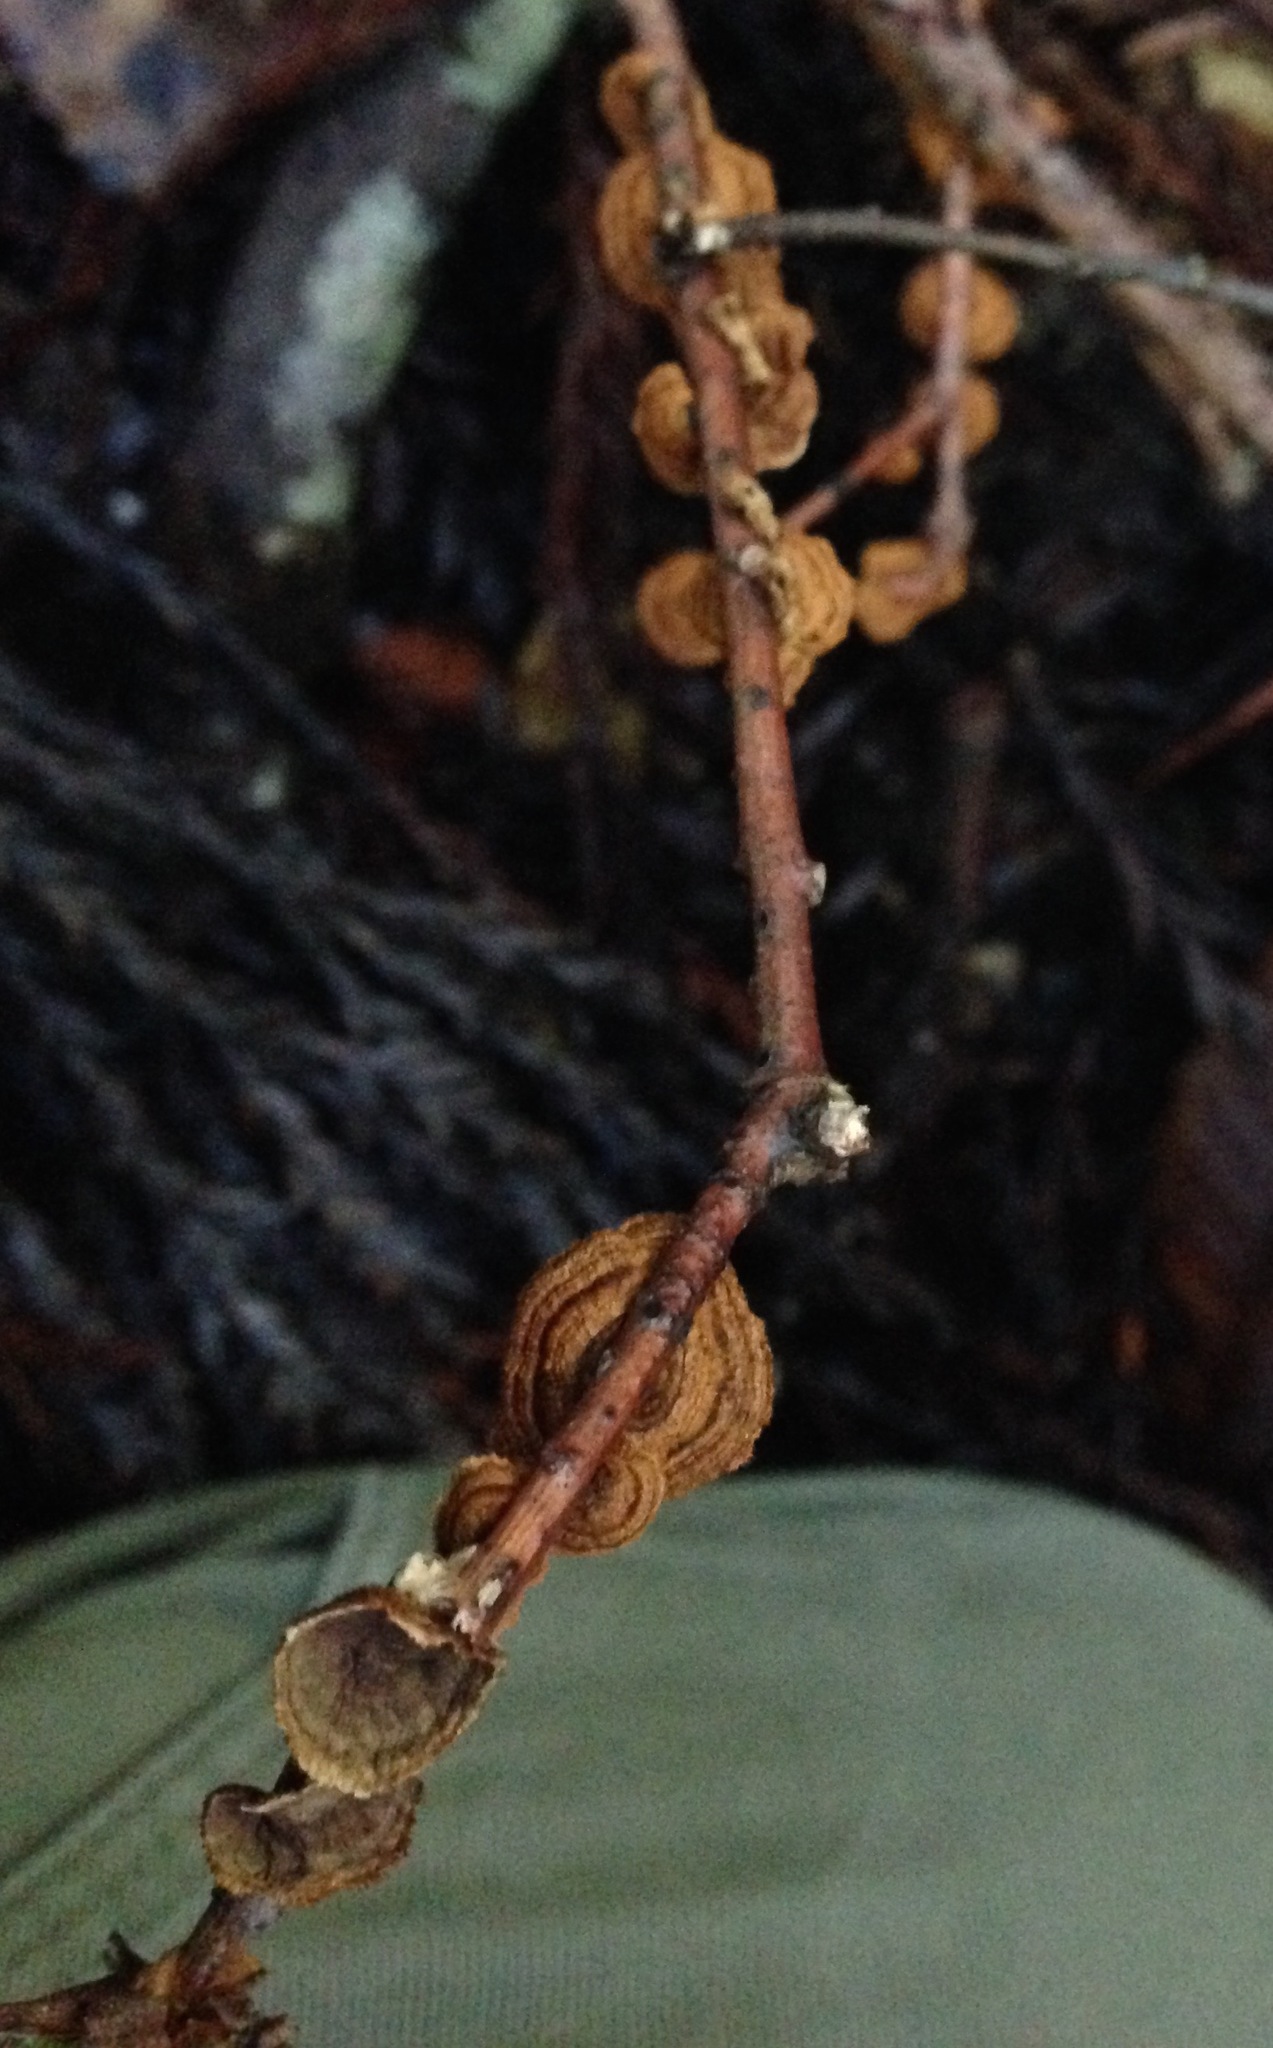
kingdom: Fungi
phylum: Basidiomycota
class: Agaricomycetes
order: Russulales
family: Stereaceae
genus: Stereum
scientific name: Stereum hirsutum
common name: Hairy curtain crust
